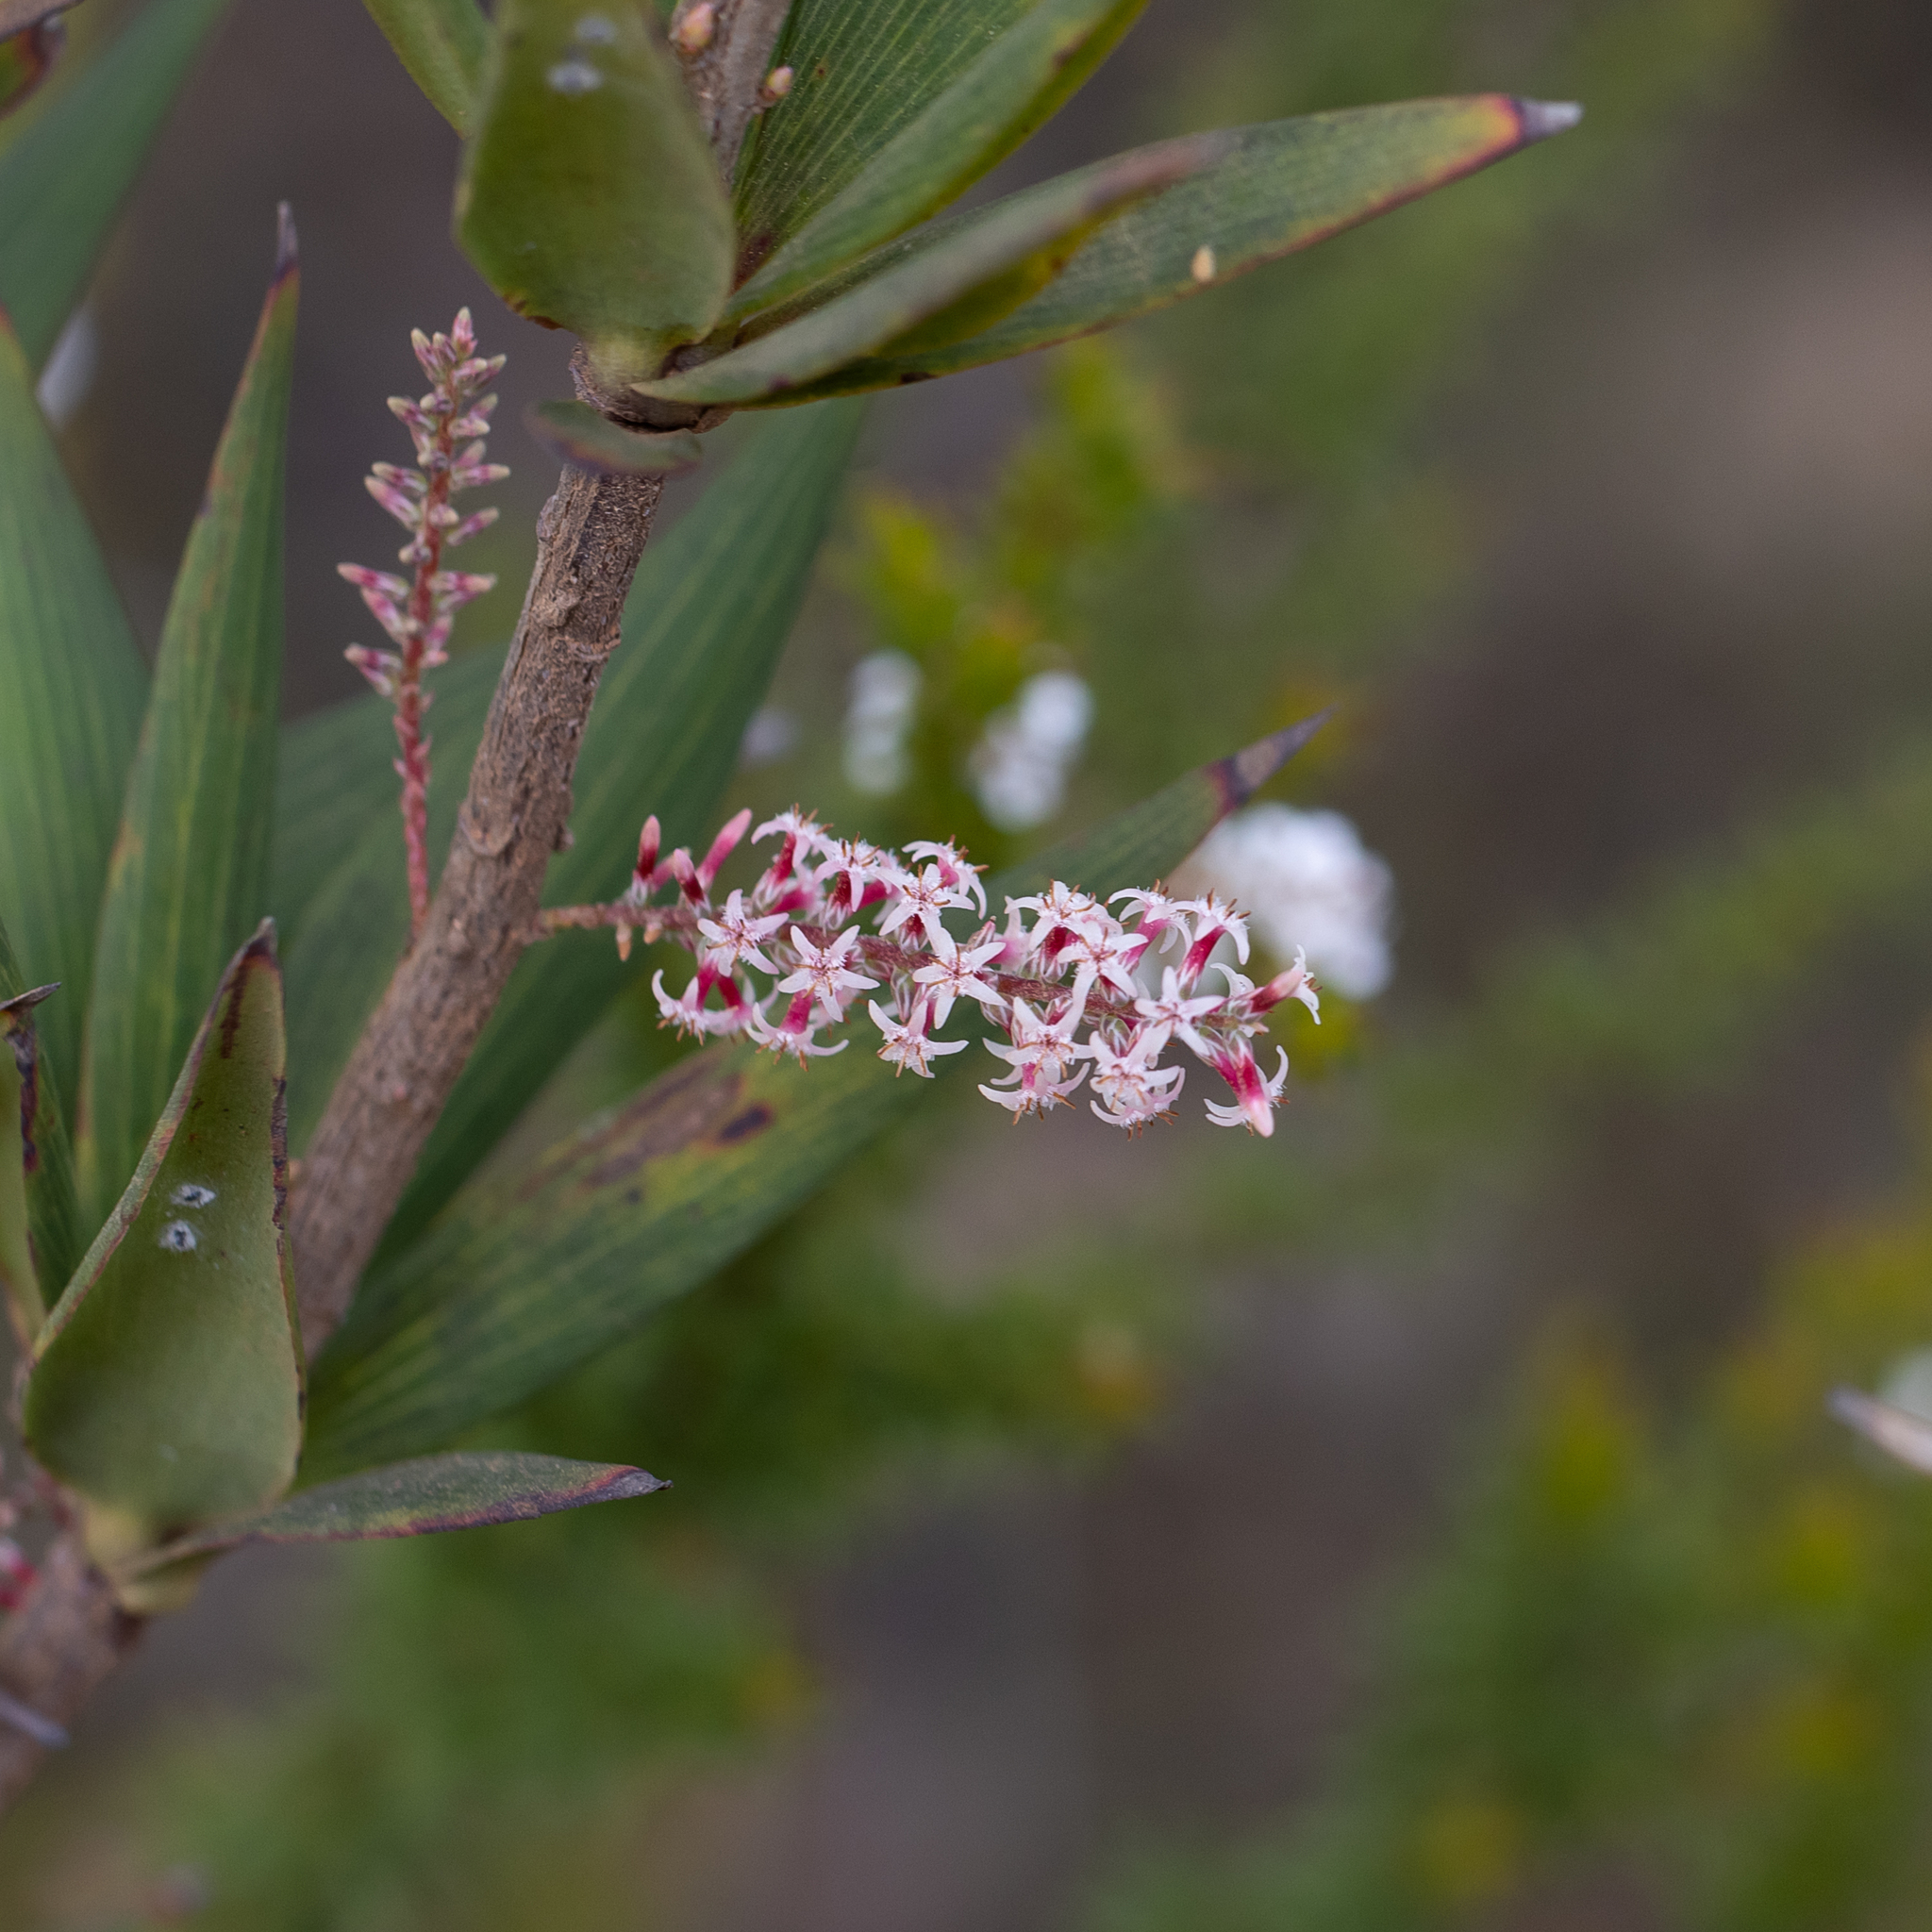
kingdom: Plantae
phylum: Tracheophyta
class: Magnoliopsida
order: Ericales
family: Ericaceae
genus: Leucopogon
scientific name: Leucopogon verticillatus
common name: Tasselshrub
